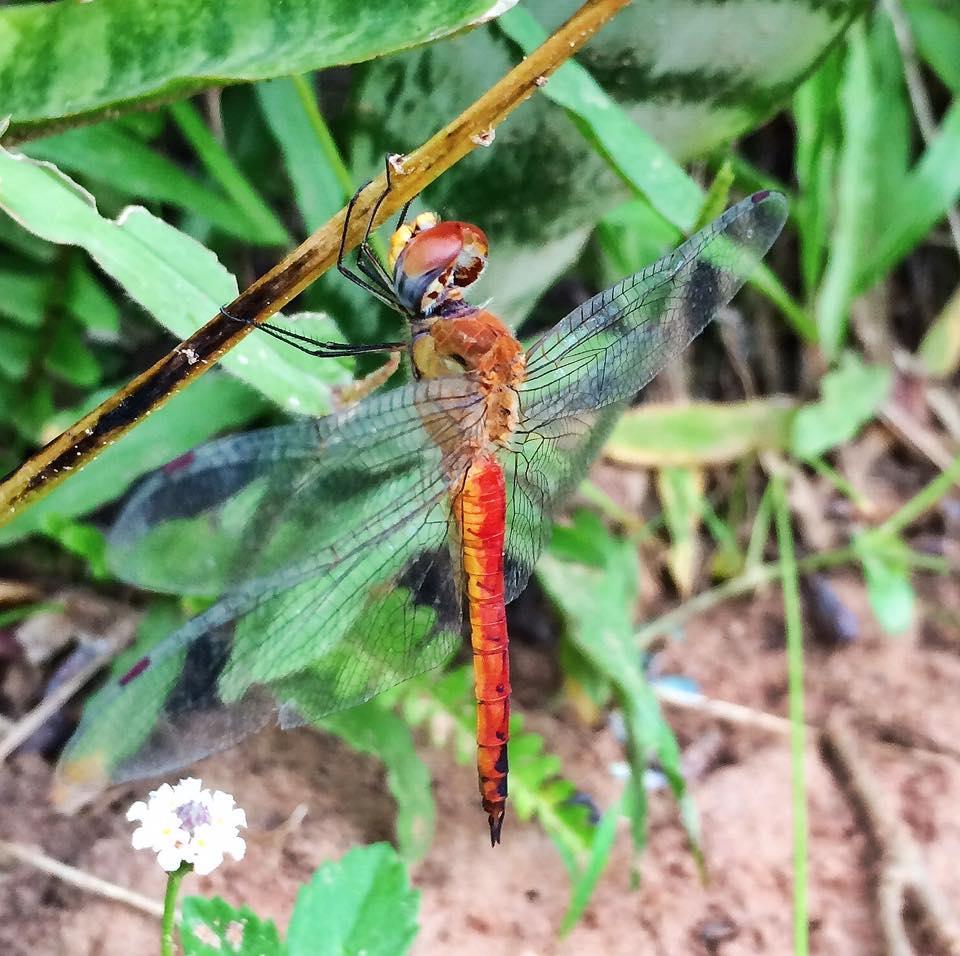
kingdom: Animalia
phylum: Arthropoda
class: Insecta
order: Odonata
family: Libellulidae
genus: Pantala
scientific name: Pantala flavescens
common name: Wandering glider
